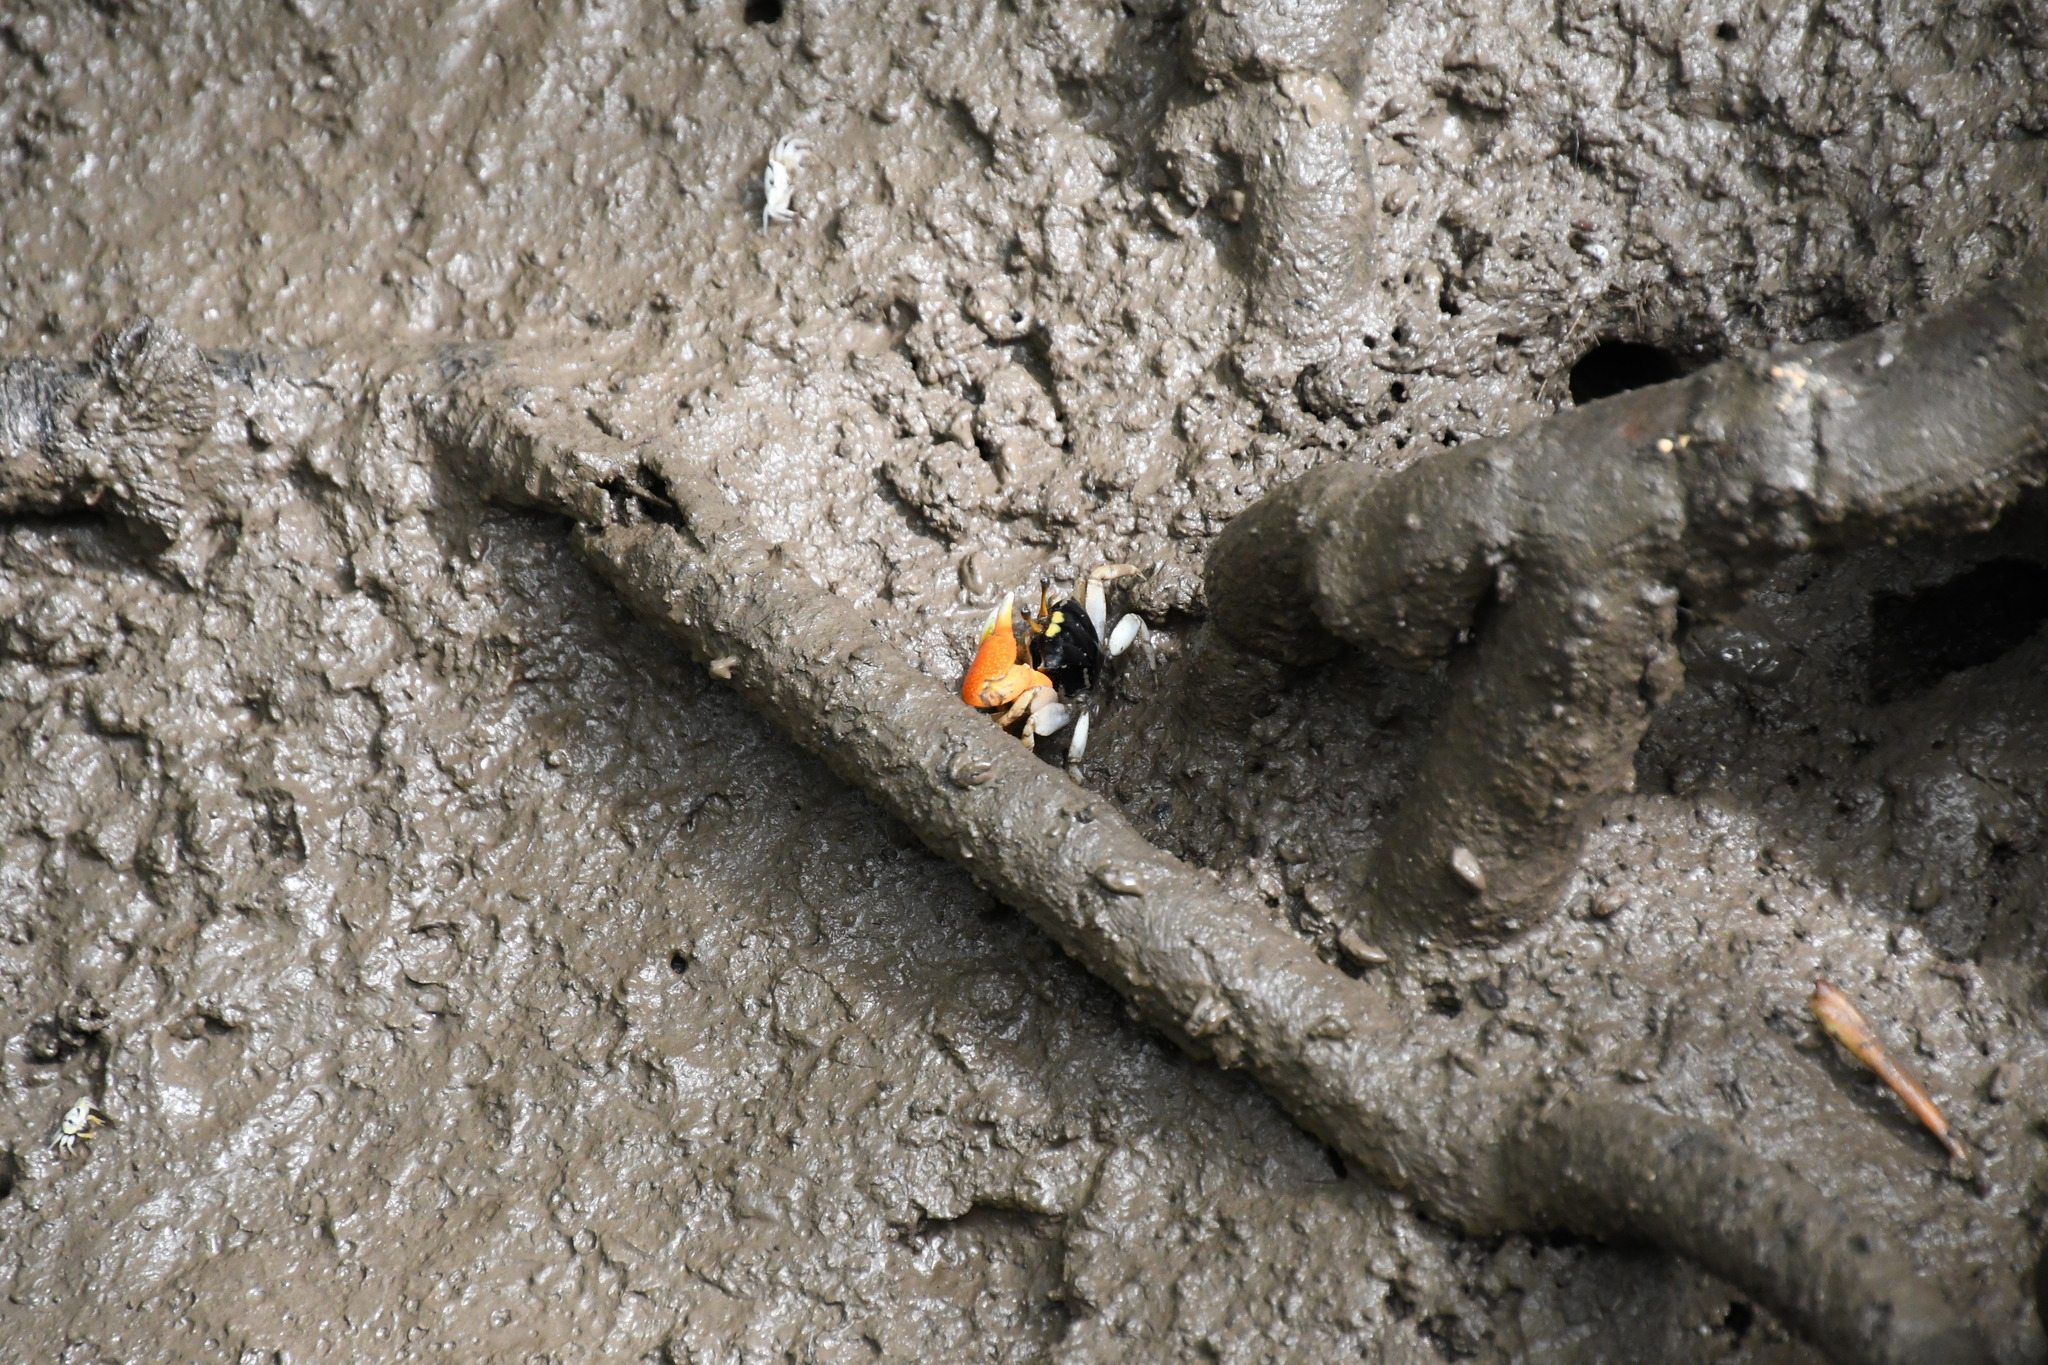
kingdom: Animalia
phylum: Arthropoda
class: Malacostraca
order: Decapoda
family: Ocypodidae
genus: Tubuca
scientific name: Tubuca coarctata
